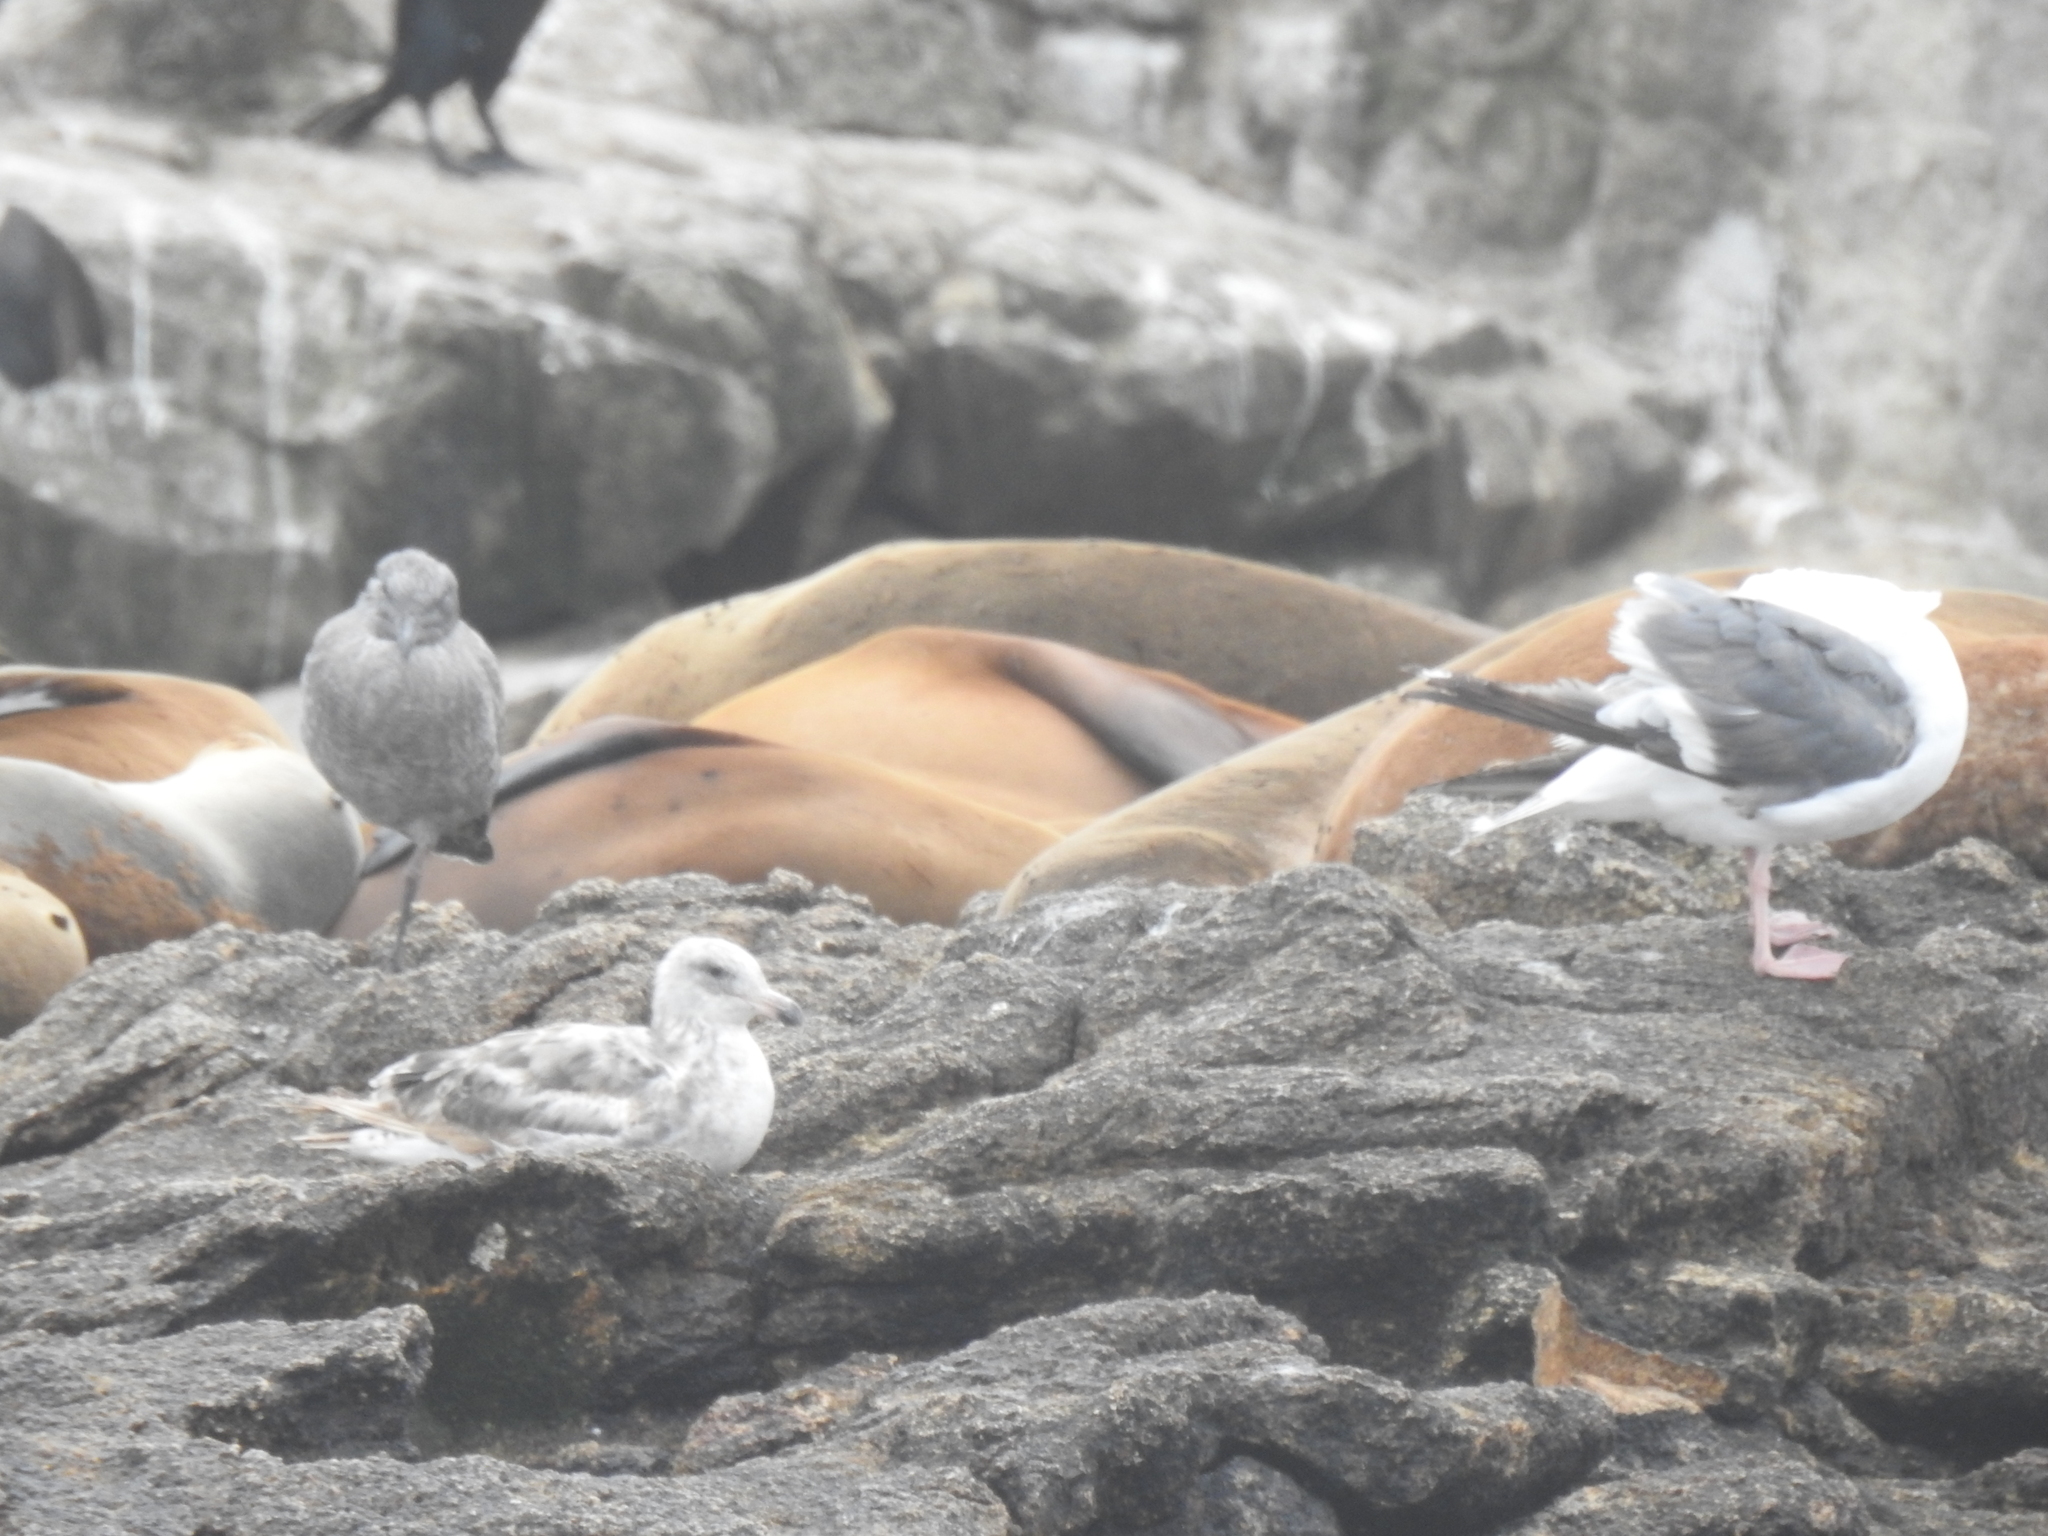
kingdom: Animalia
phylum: Chordata
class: Aves
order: Charadriiformes
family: Laridae
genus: Larus
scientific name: Larus occidentalis
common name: Western gull
